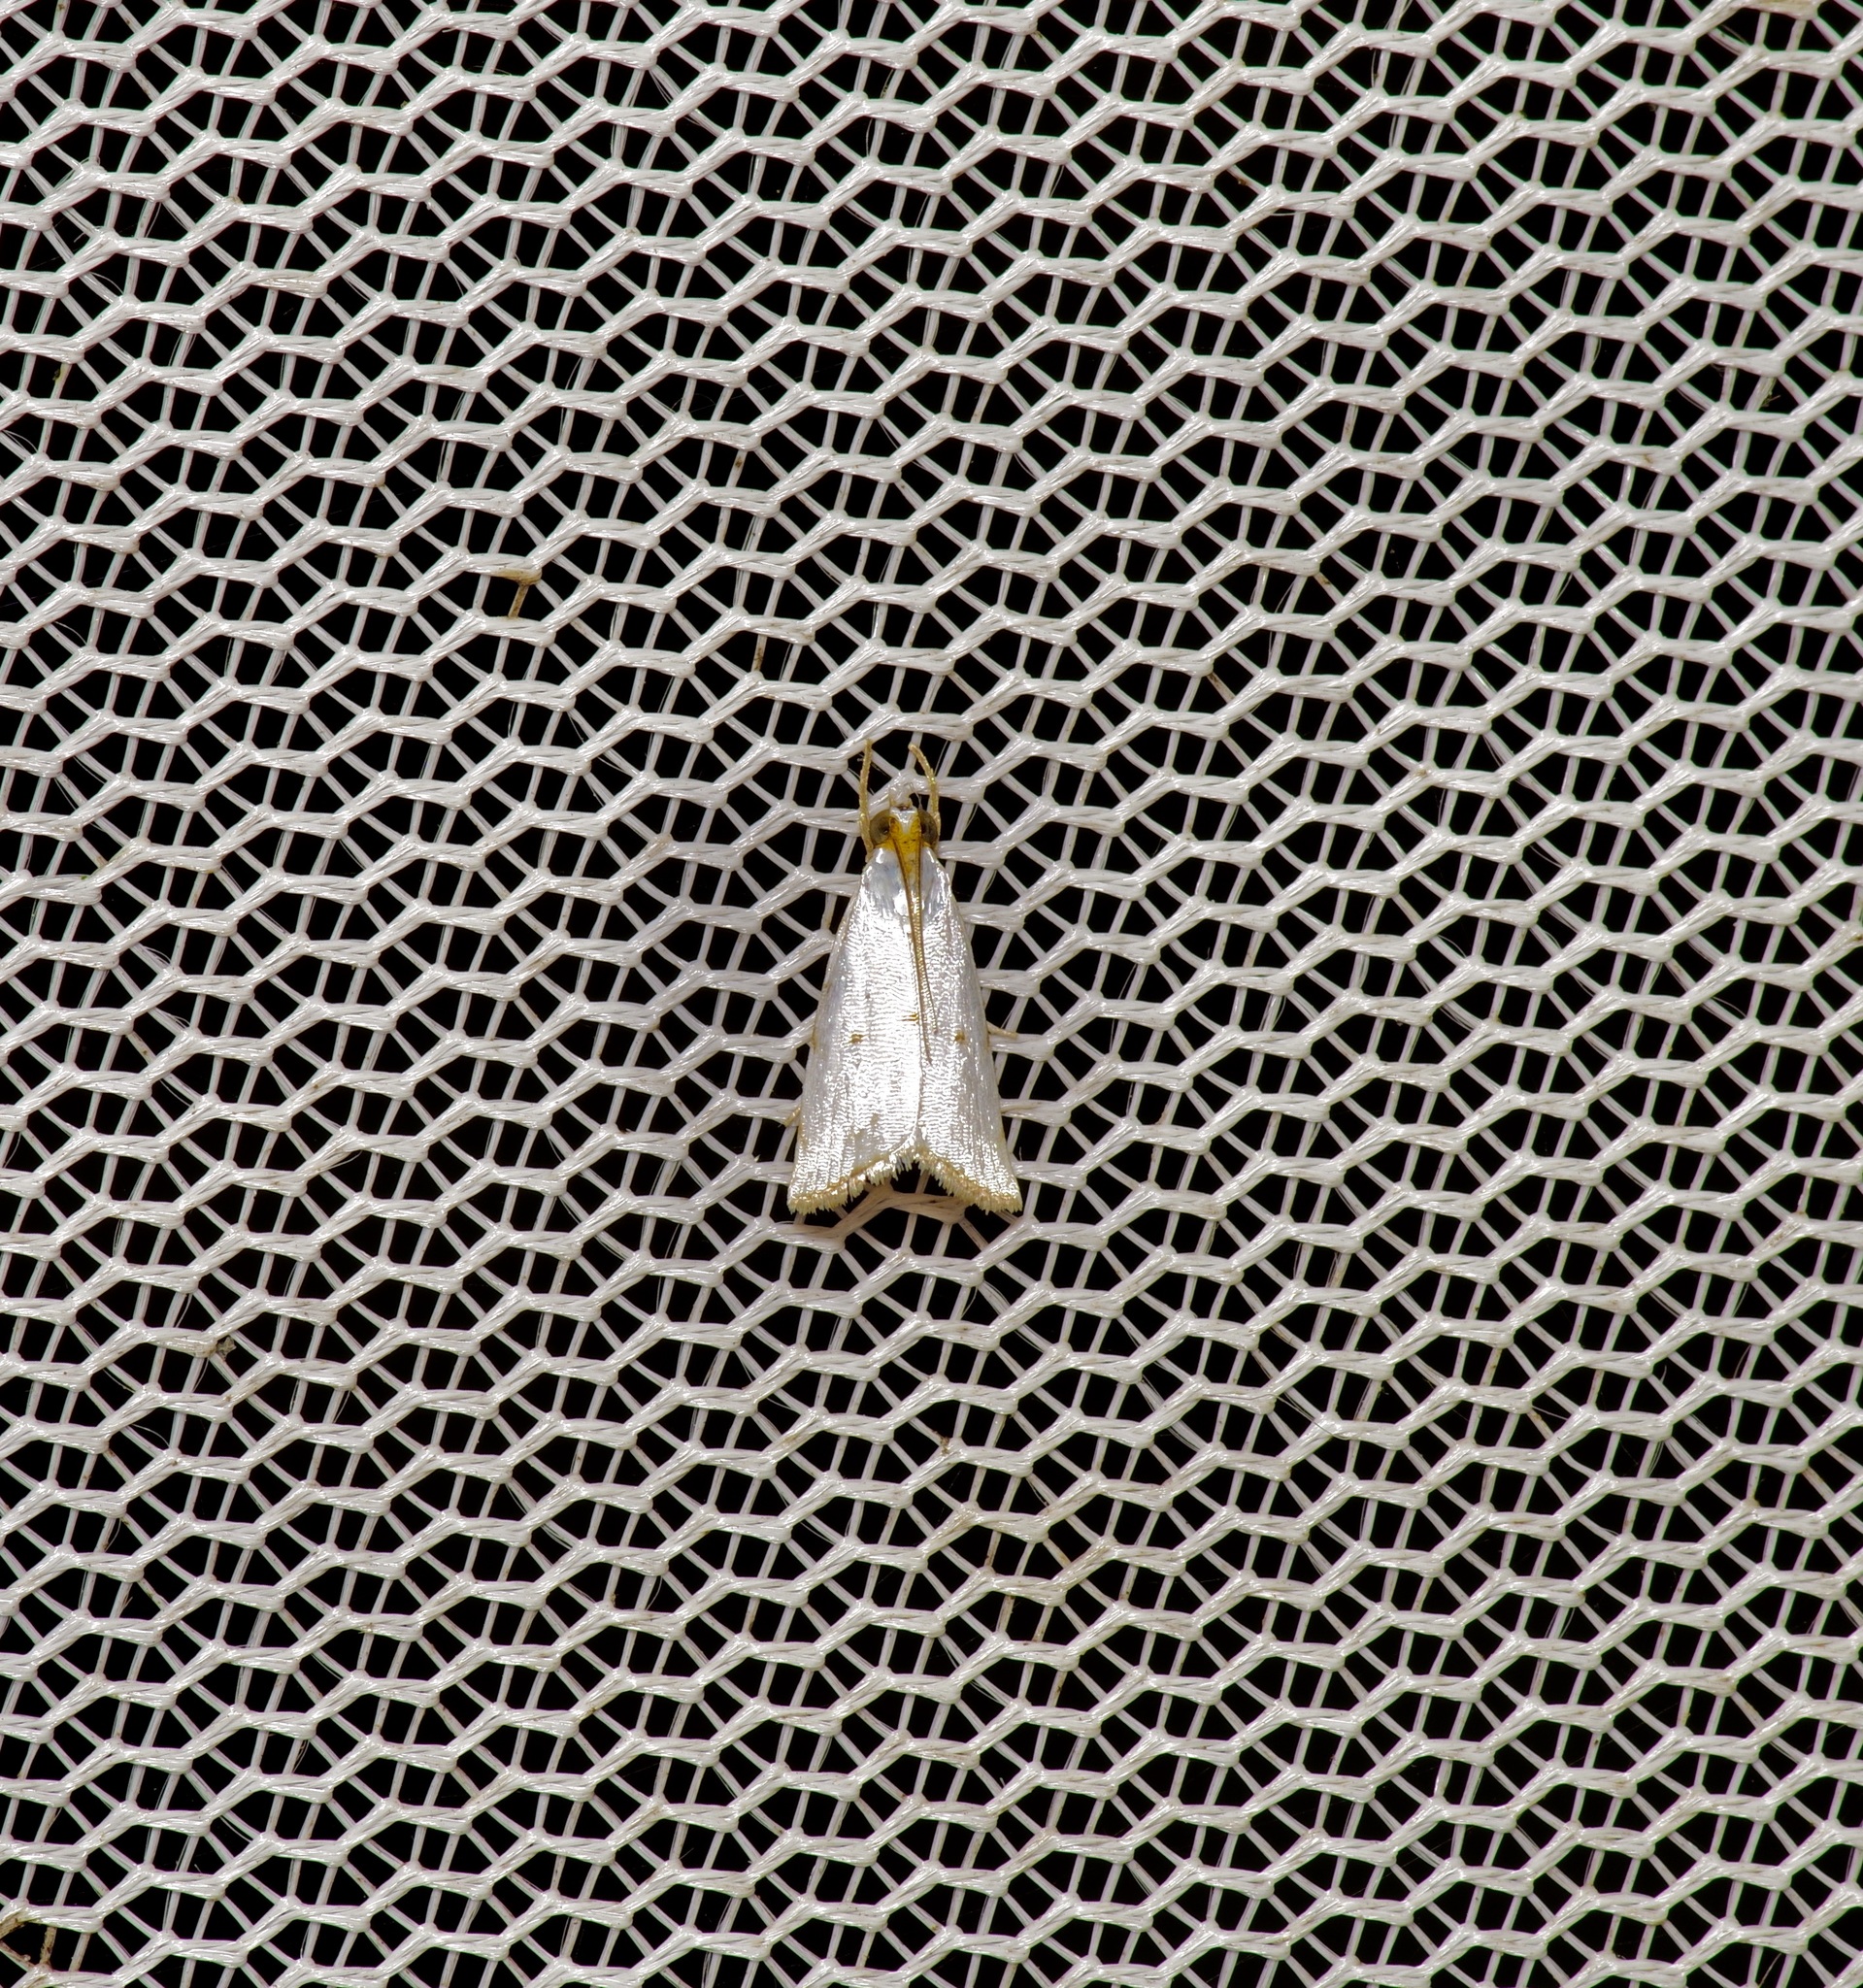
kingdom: Animalia
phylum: Arthropoda
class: Insecta
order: Lepidoptera
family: Crambidae
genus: Argyria
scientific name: Argyria pusillalis
